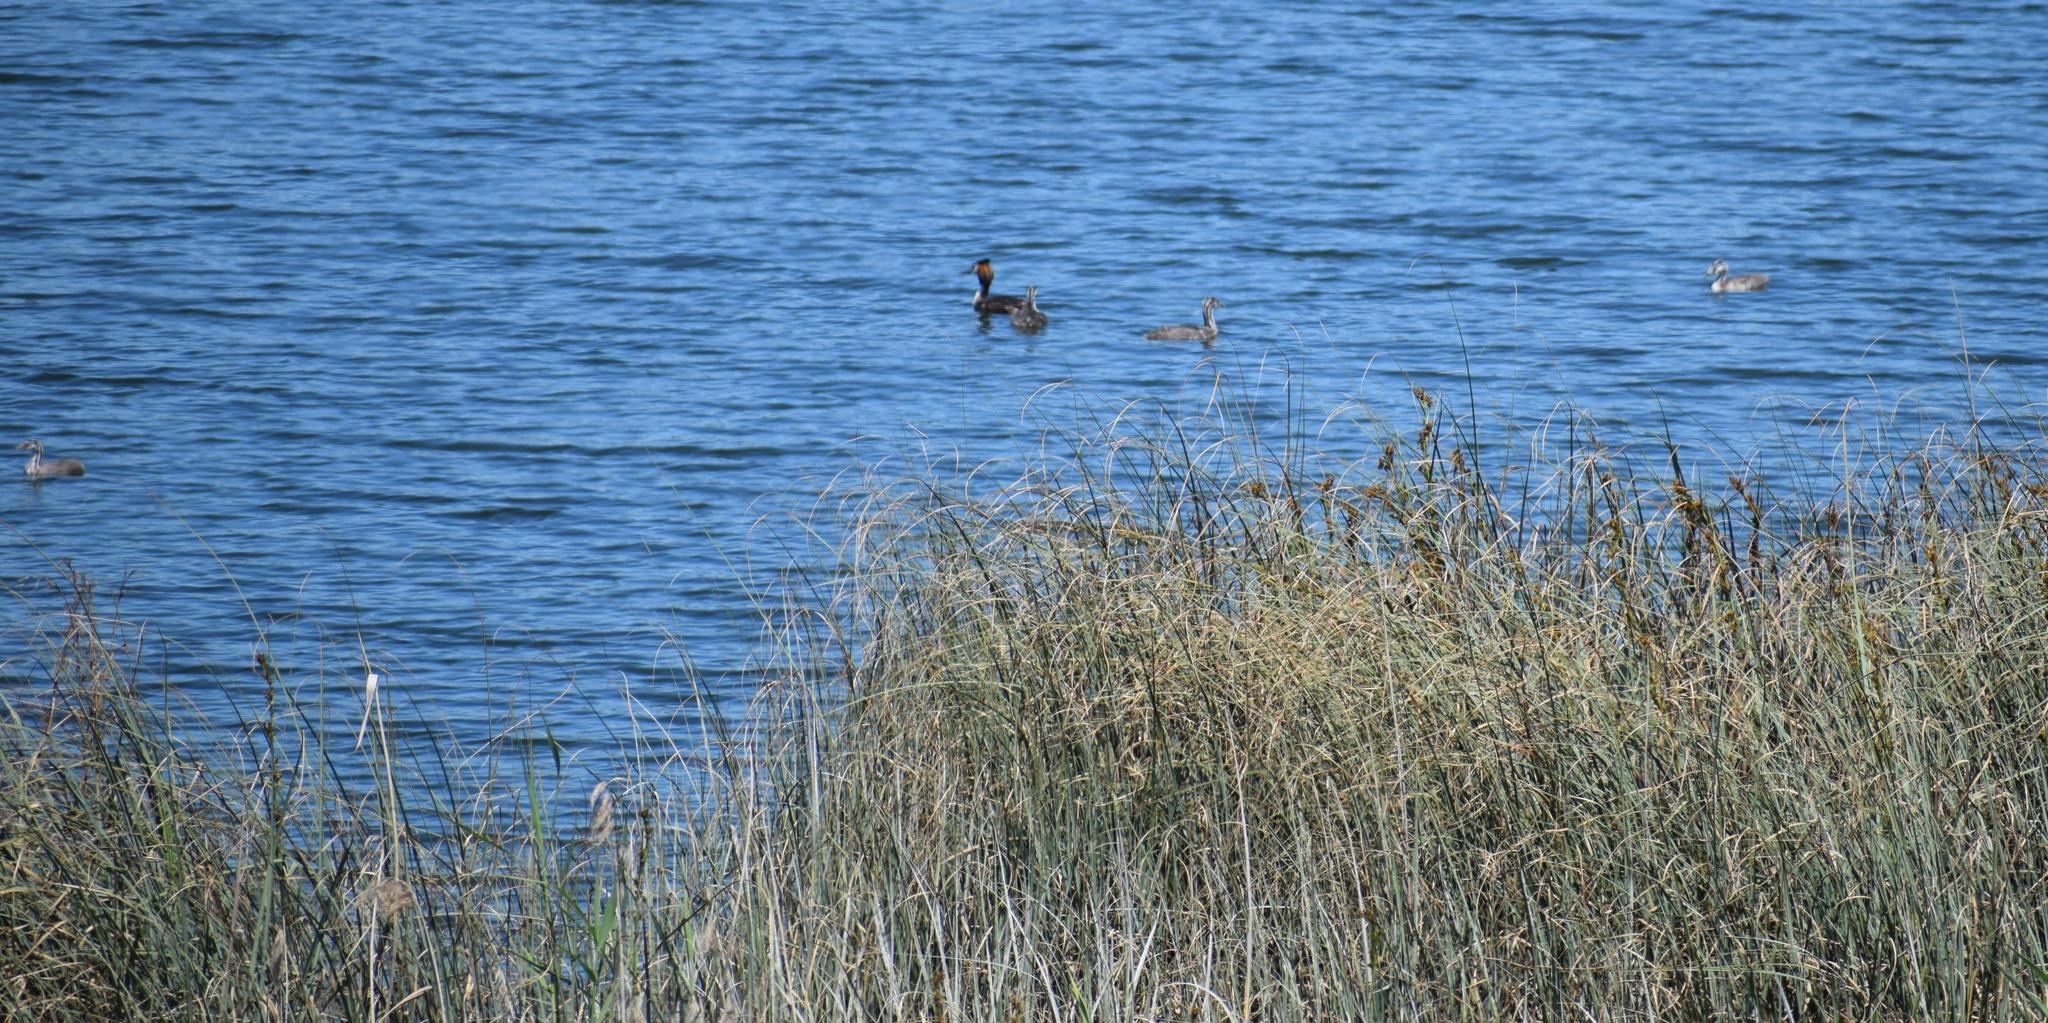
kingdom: Animalia
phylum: Chordata
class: Aves
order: Podicipediformes
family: Podicipedidae
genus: Podiceps
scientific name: Podiceps cristatus
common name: Great crested grebe
